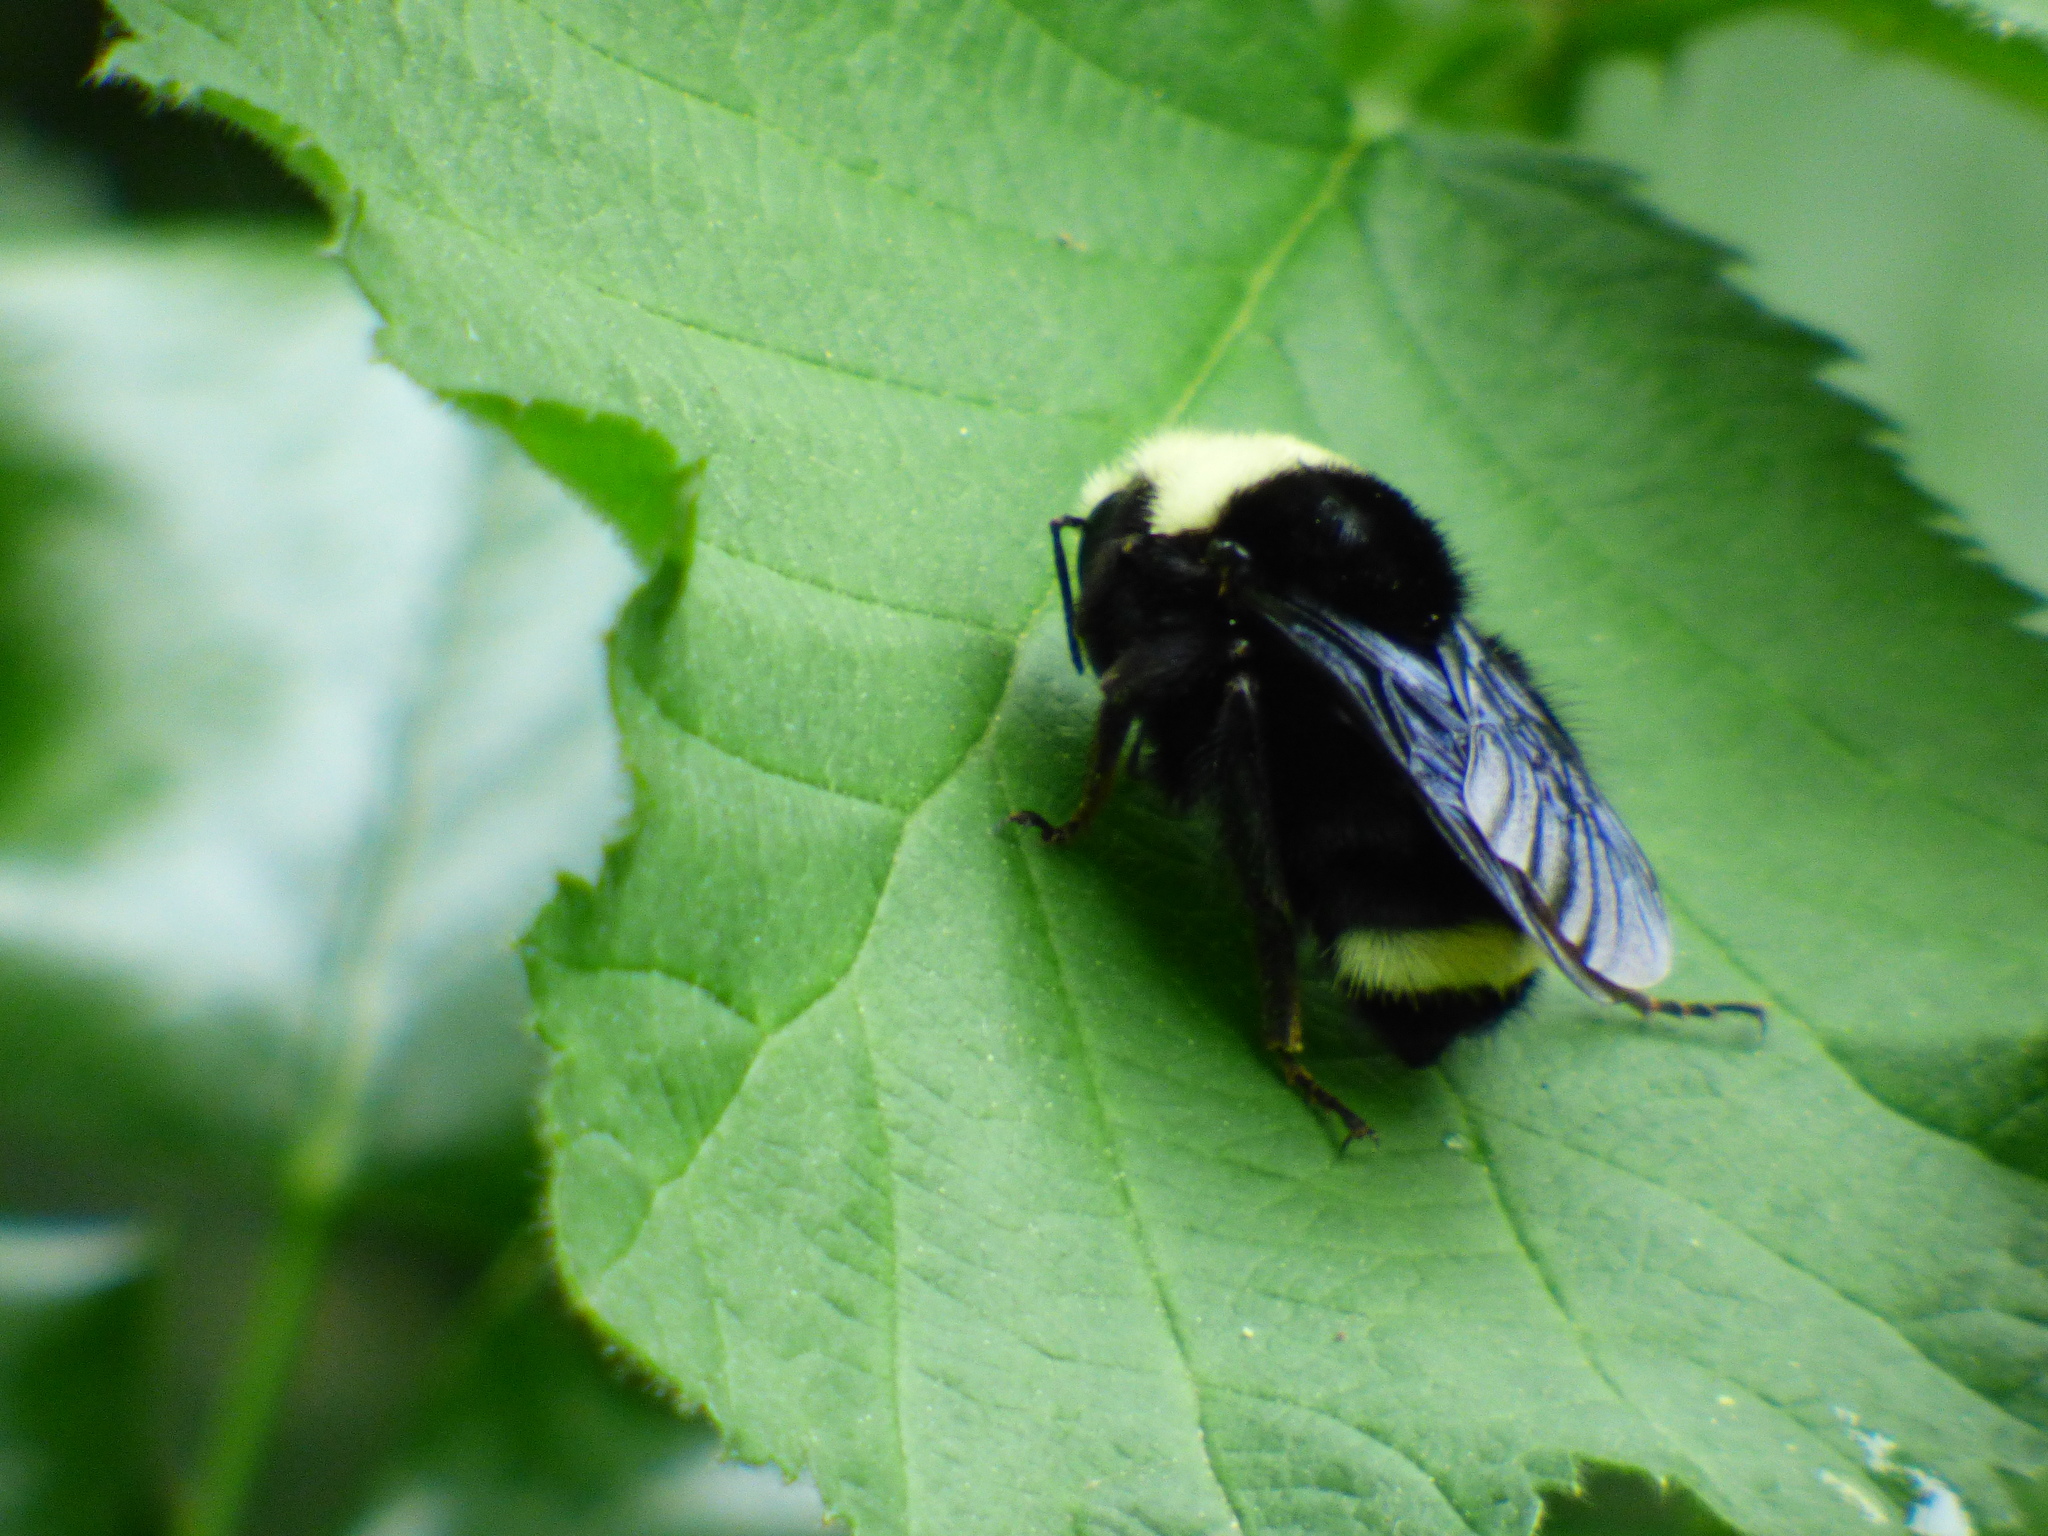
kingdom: Animalia
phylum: Arthropoda
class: Insecta
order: Hymenoptera
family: Apidae
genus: Bombus
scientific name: Bombus vosnesenskii
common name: Vosnesensky bumble bee
